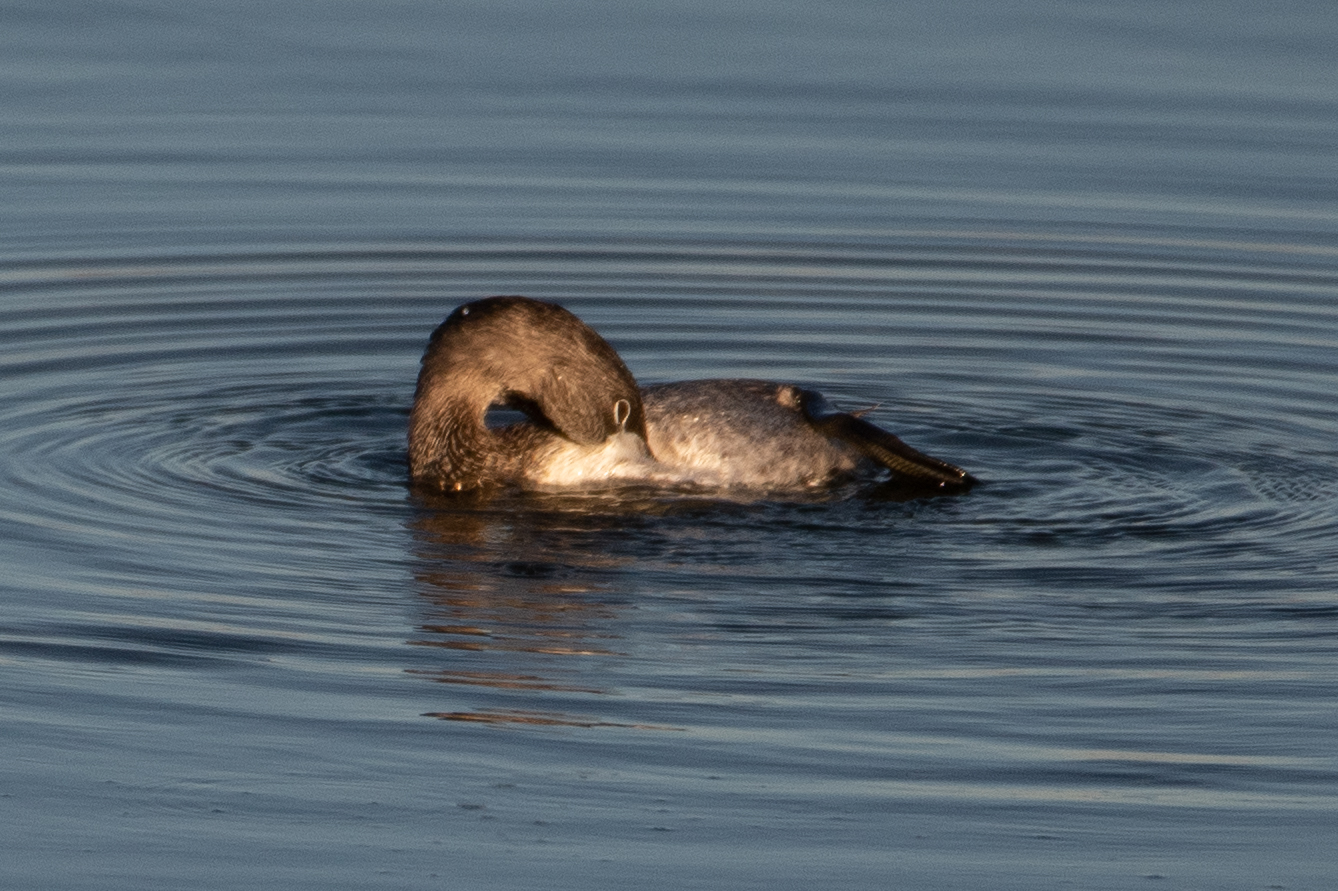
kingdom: Animalia
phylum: Chordata
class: Aves
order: Podicipediformes
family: Podicipedidae
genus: Podilymbus
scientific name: Podilymbus podiceps
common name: Pied-billed grebe
